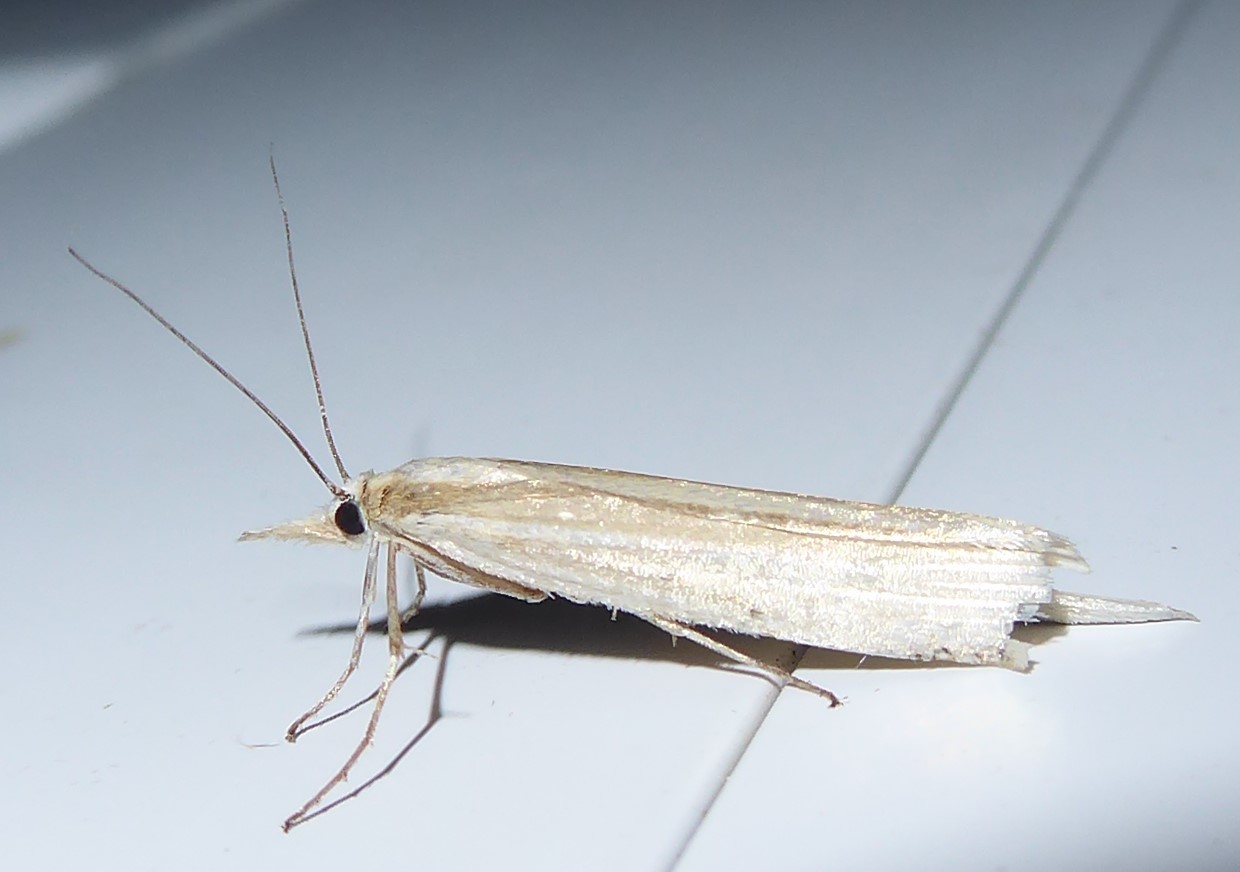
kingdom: Animalia
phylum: Arthropoda
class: Insecta
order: Lepidoptera
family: Crambidae
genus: Orocrambus
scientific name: Orocrambus angustipennis
